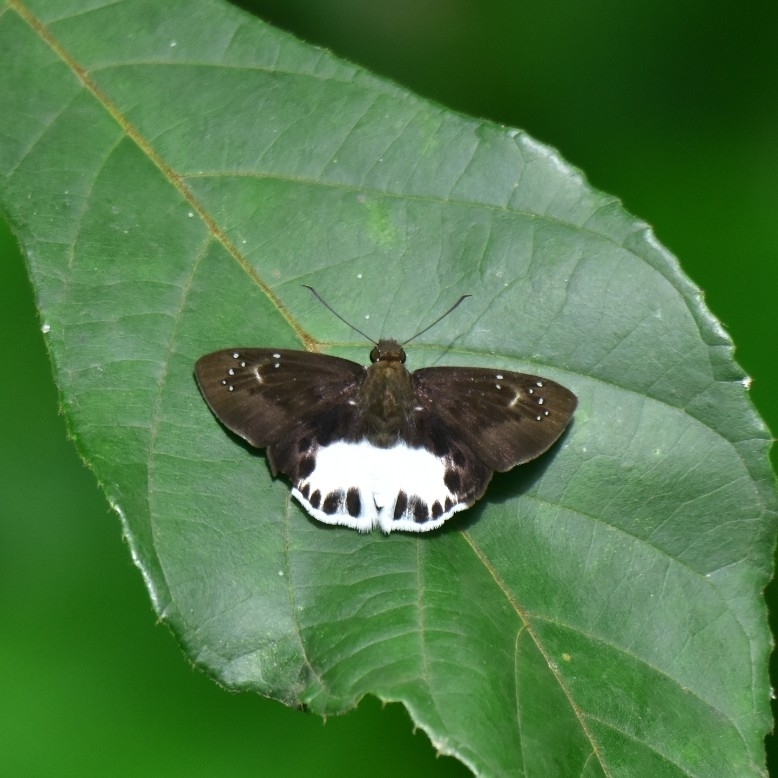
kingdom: Animalia
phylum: Arthropoda
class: Insecta
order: Lepidoptera
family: Hesperiidae
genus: Tagiades
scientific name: Tagiades litigiosa
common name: Water snow flat
